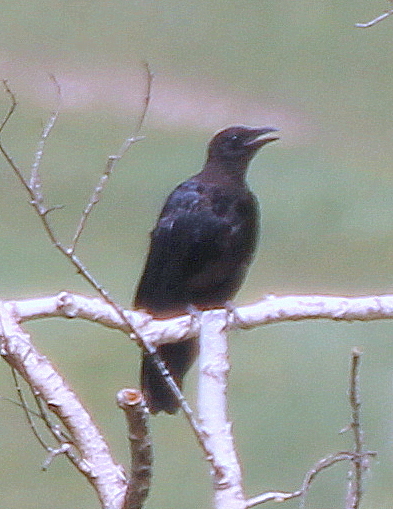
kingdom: Animalia
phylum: Chordata
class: Aves
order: Passeriformes
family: Corvidae
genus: Corvus
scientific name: Corvus corone
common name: Carrion crow
